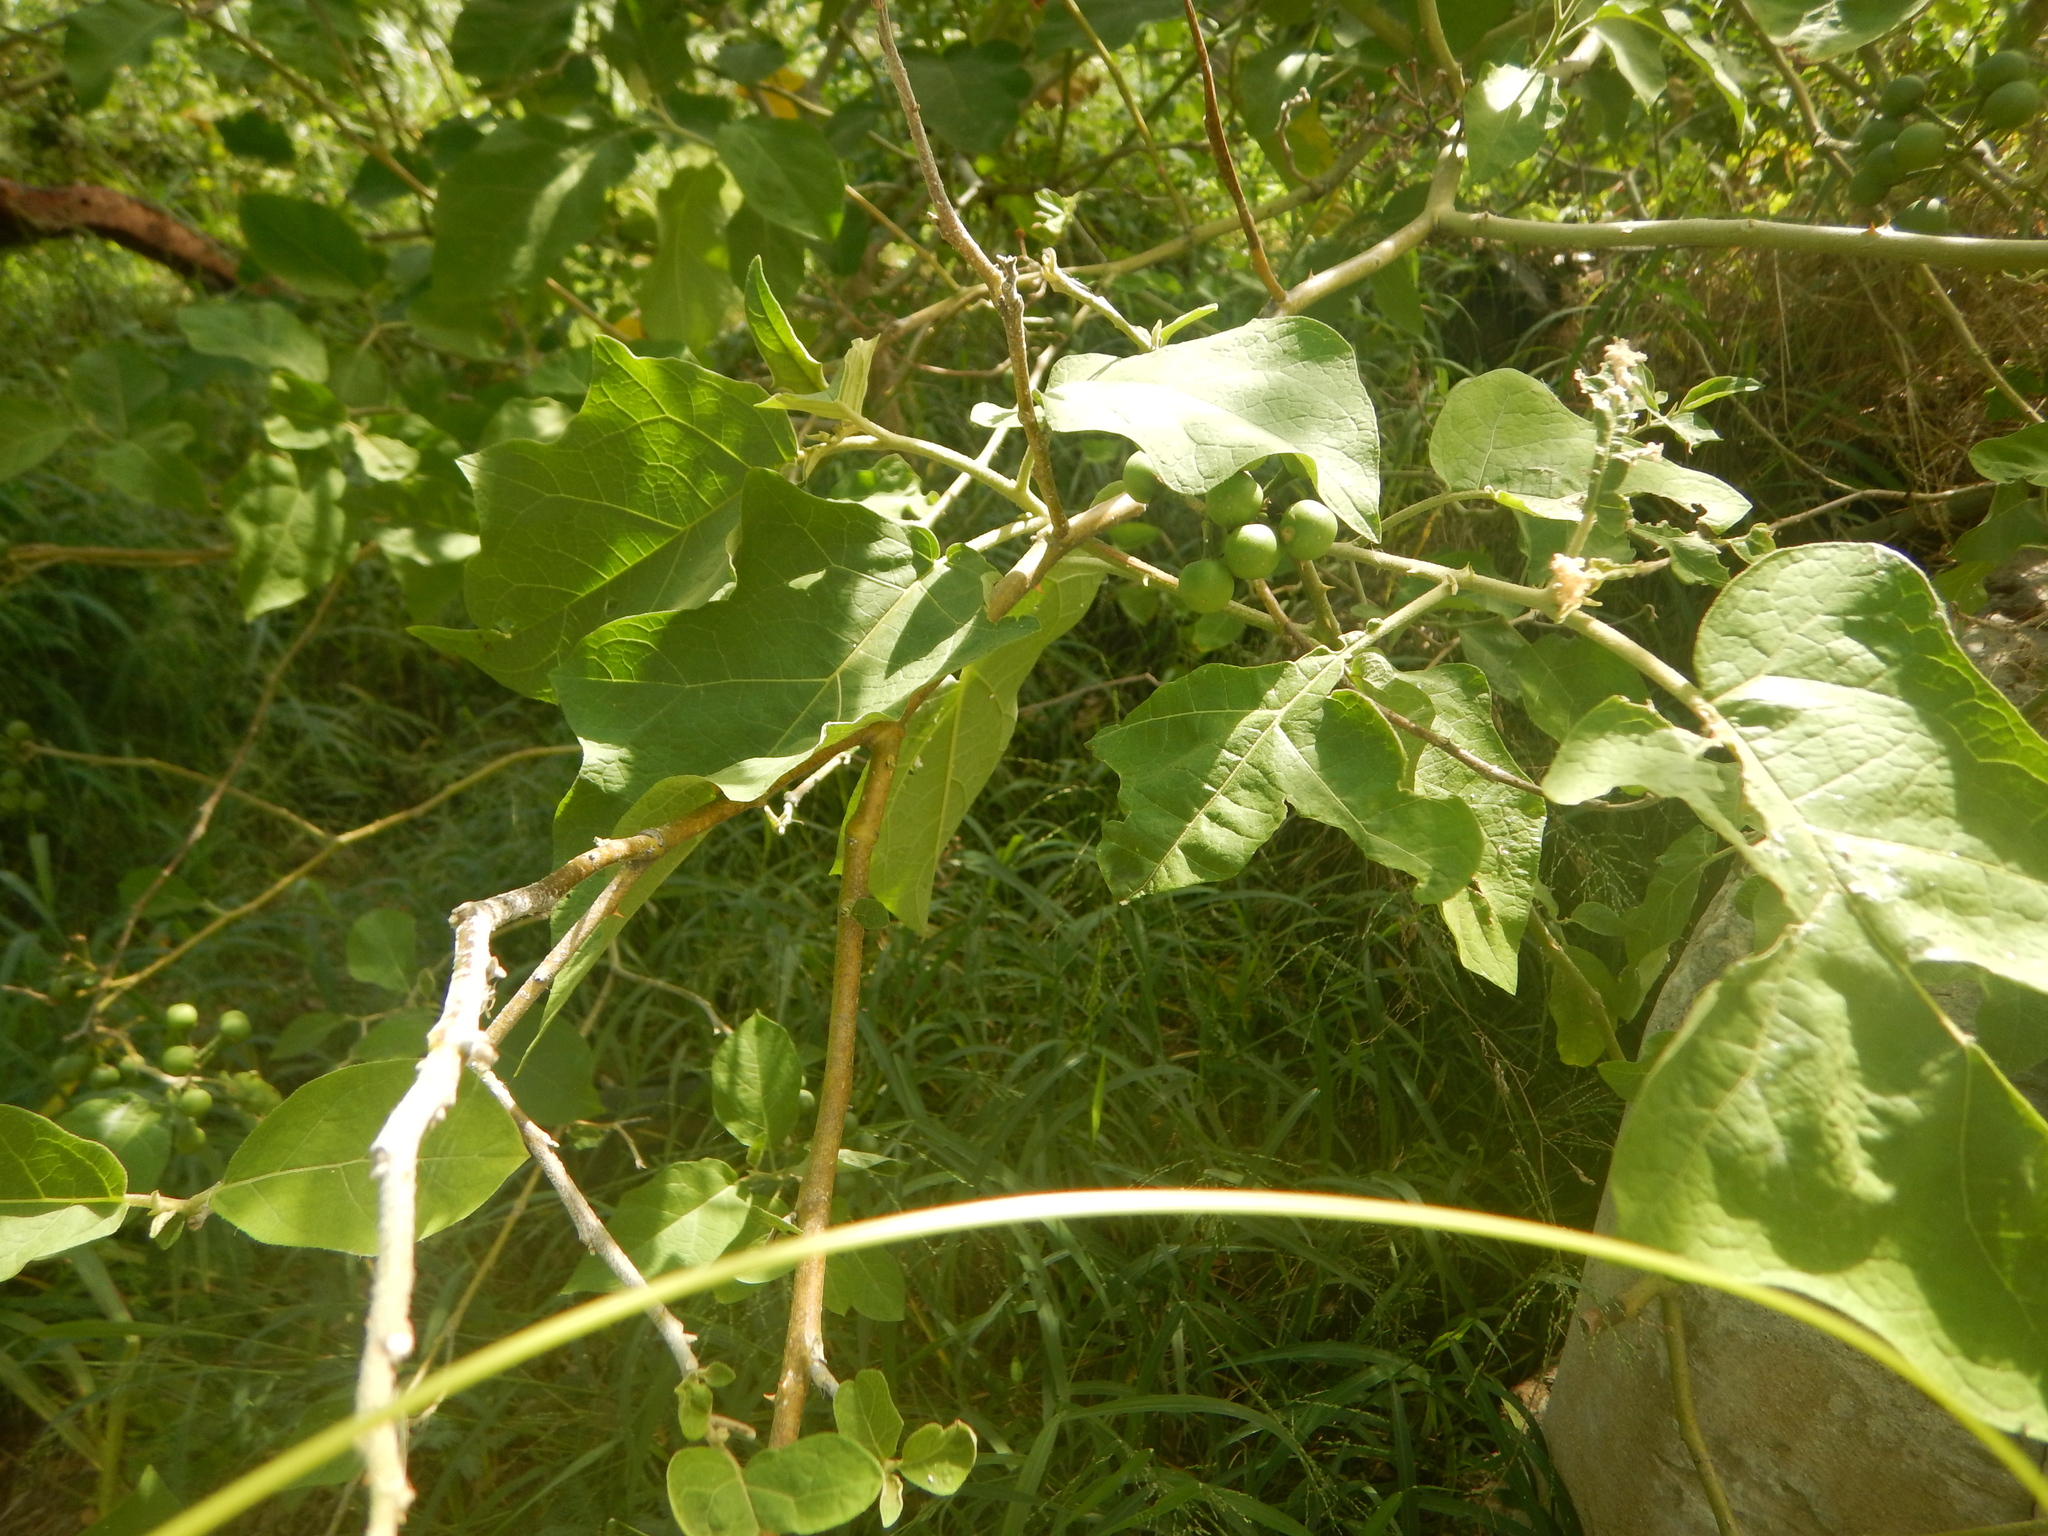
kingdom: Plantae
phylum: Tracheophyta
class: Magnoliopsida
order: Solanales
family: Solanaceae
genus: Solanum
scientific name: Solanum torvum
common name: Turkey berry
